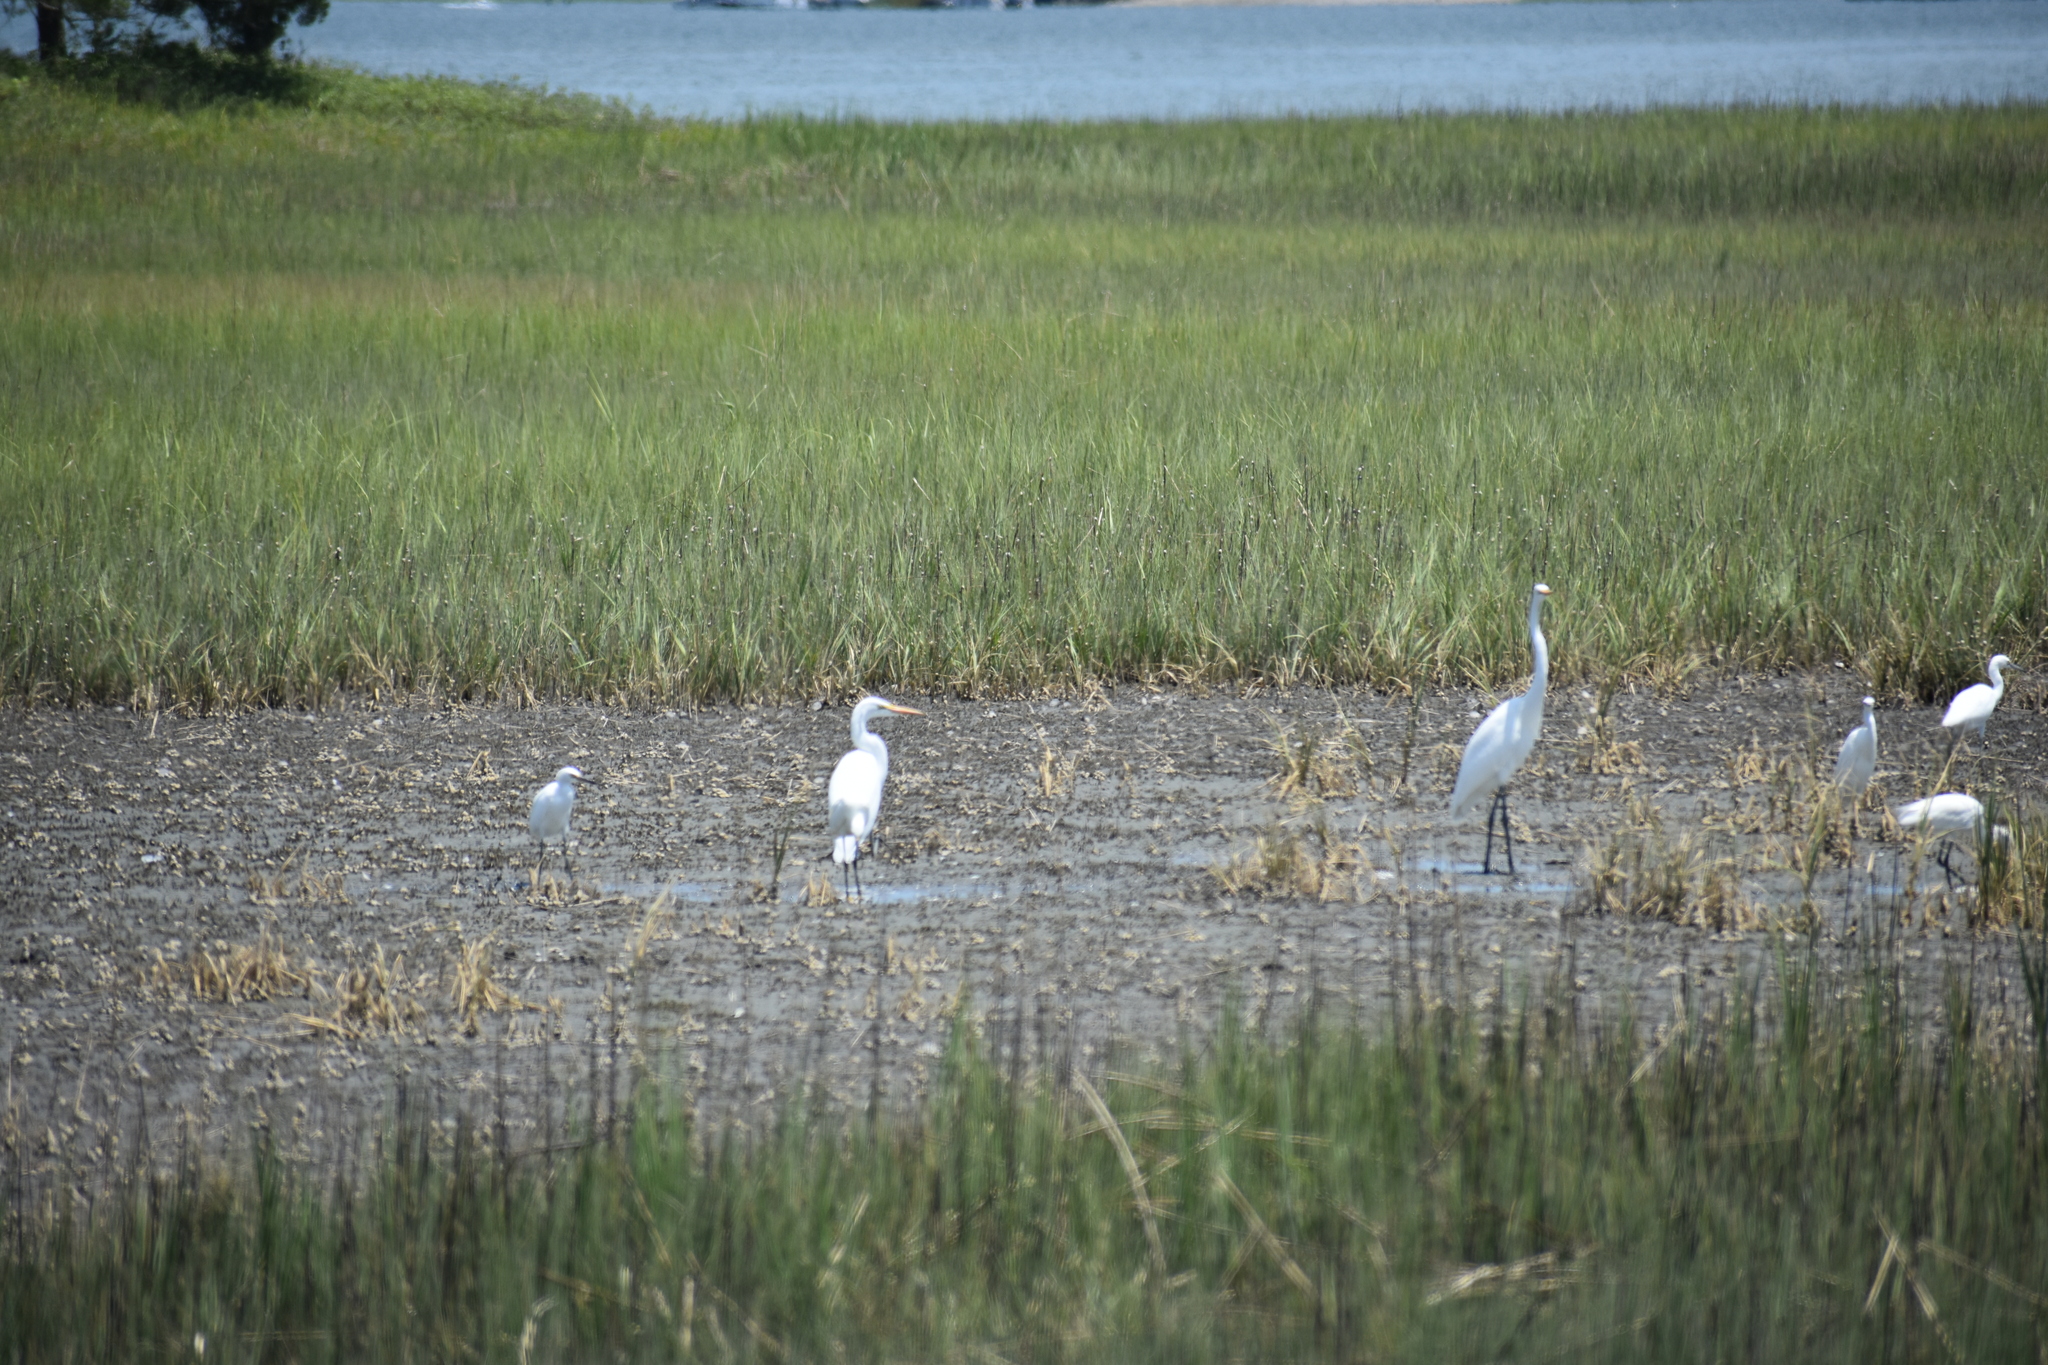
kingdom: Animalia
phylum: Chordata
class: Aves
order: Pelecaniformes
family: Ardeidae
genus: Ardea
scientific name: Ardea alba
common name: Great egret
